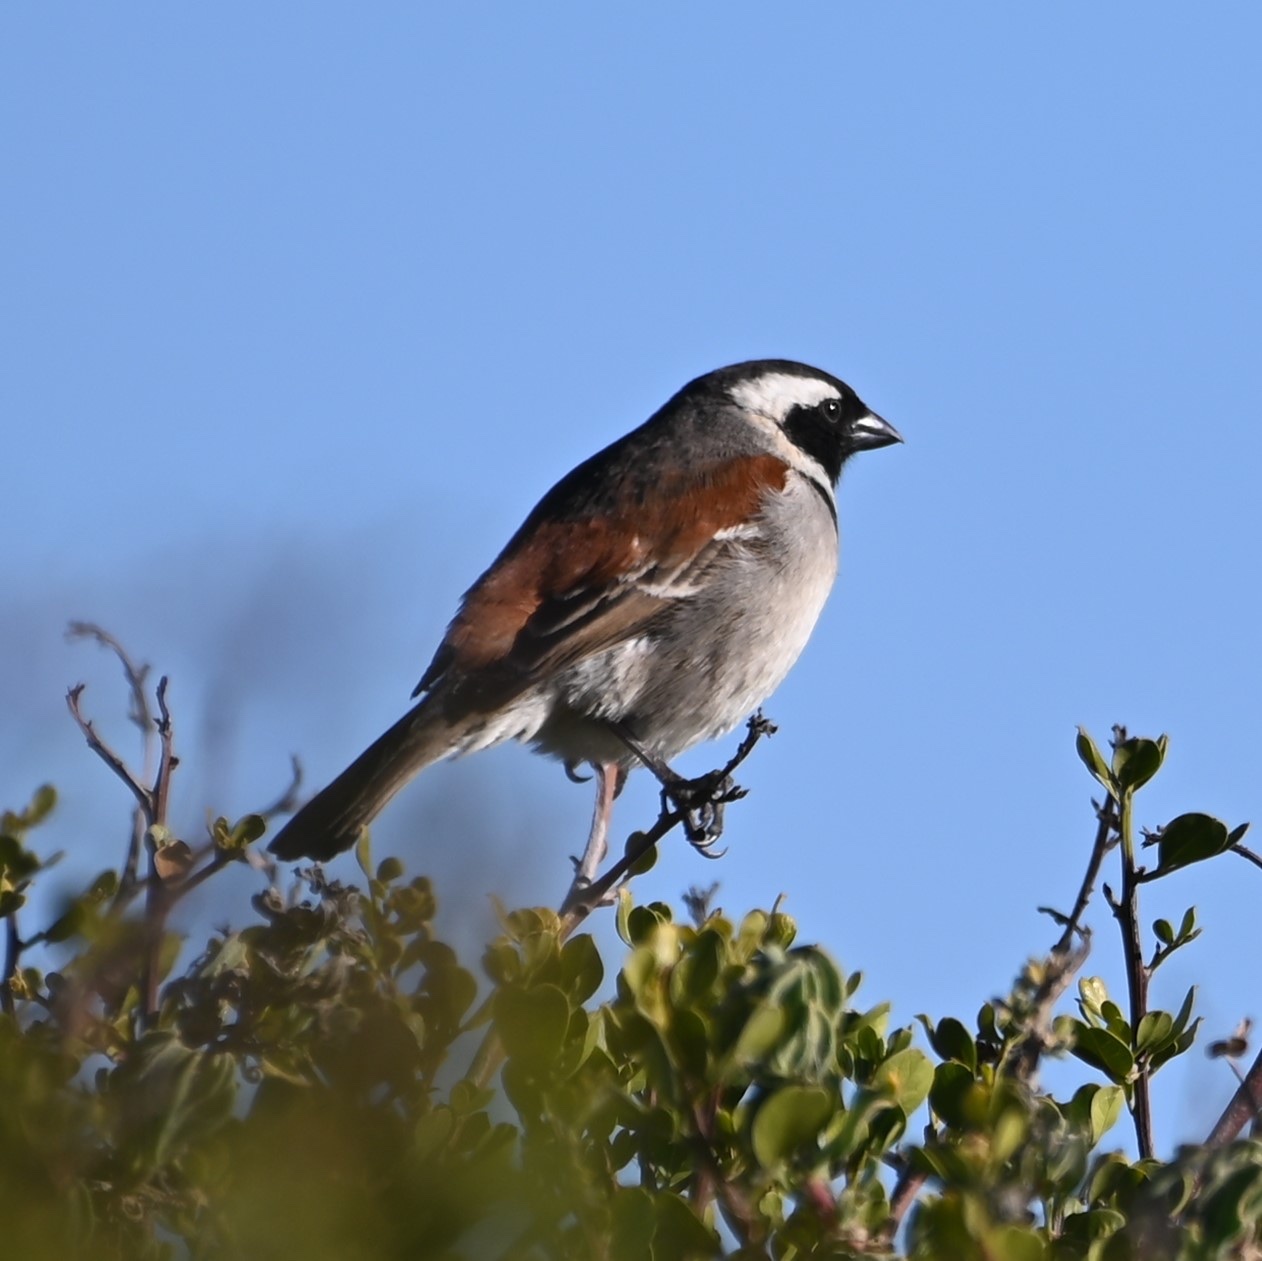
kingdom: Animalia
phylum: Chordata
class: Aves
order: Passeriformes
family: Passeridae
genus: Passer
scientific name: Passer melanurus
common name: Cape sparrow
